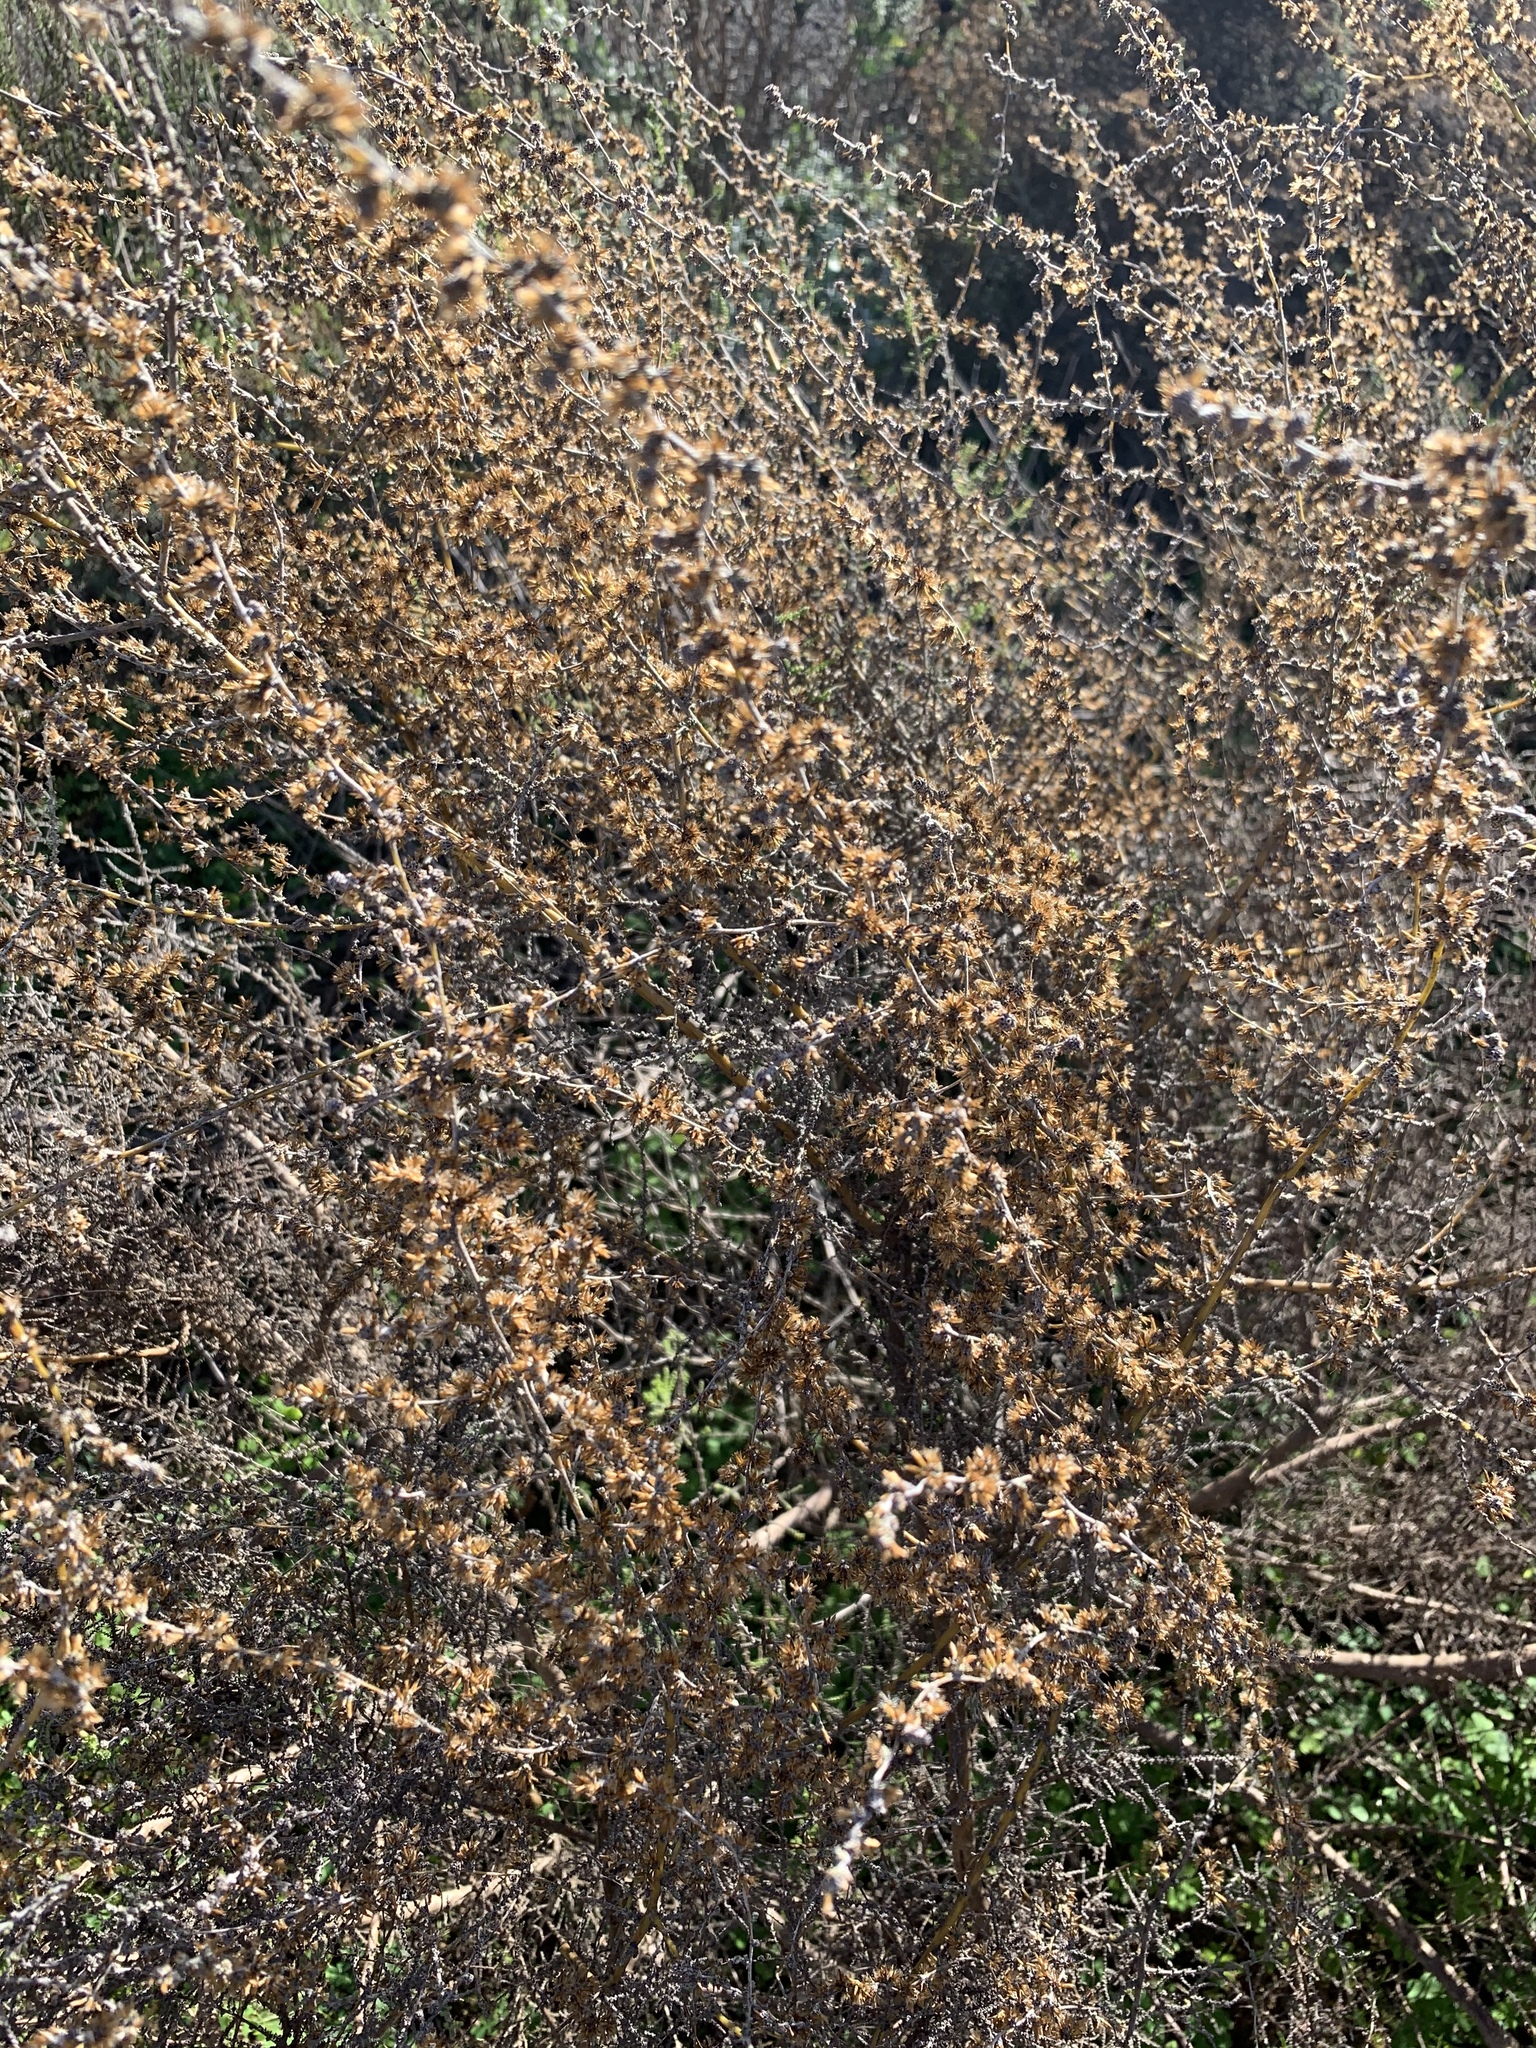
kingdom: Plantae
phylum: Tracheophyta
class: Magnoliopsida
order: Asterales
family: Asteraceae
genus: Seriphium
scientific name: Seriphium plumosum
